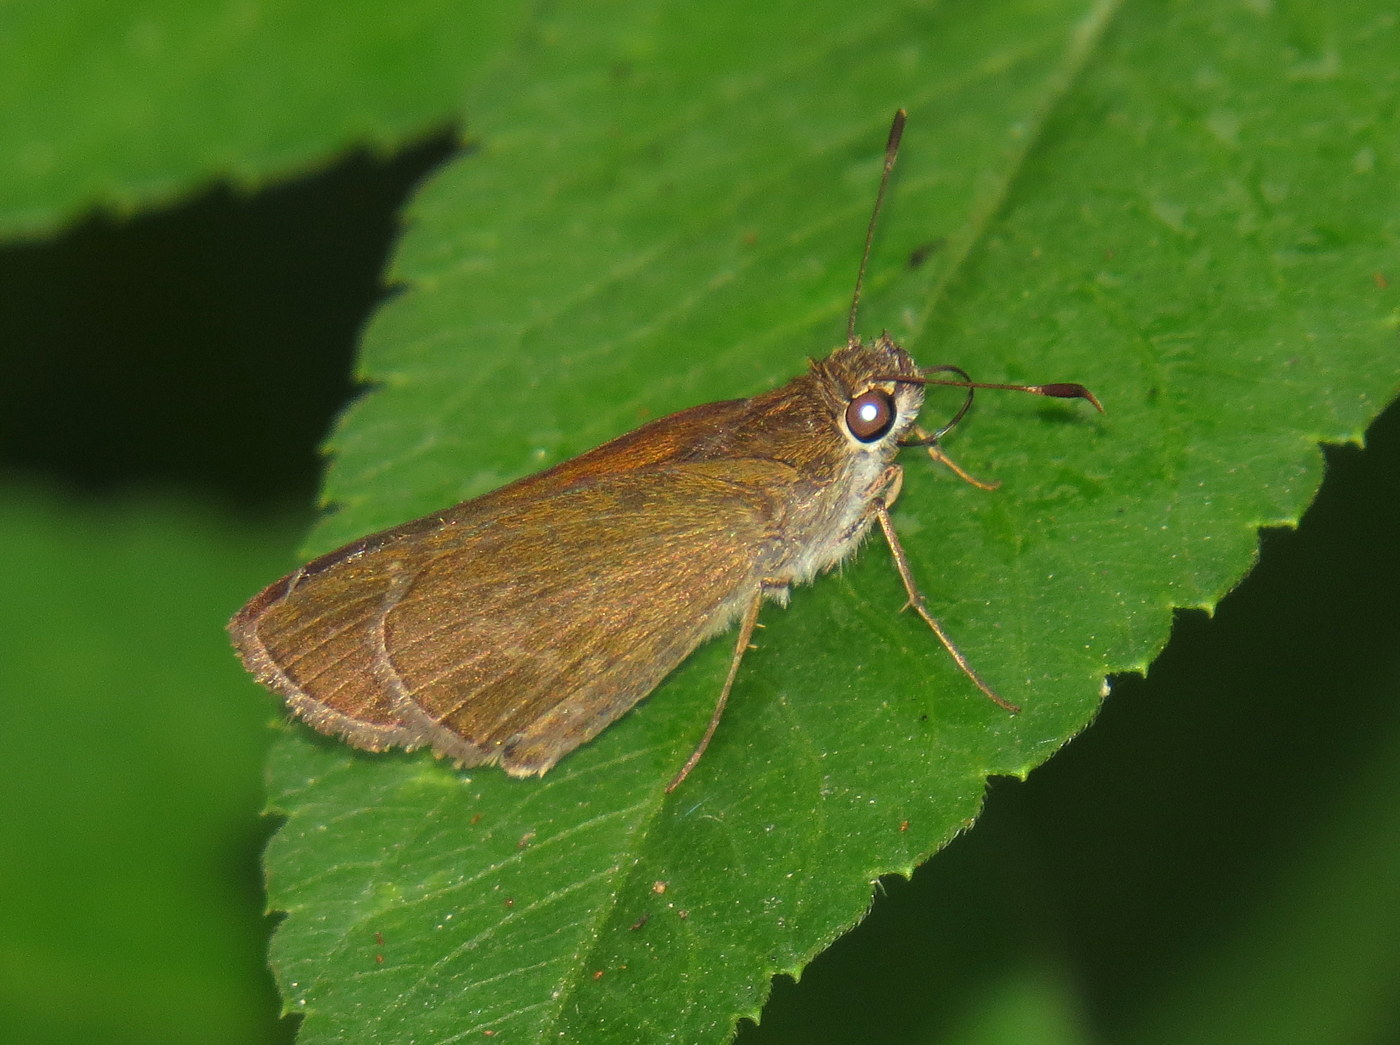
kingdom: Animalia
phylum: Arthropoda
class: Insecta
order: Lepidoptera
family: Hesperiidae
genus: Cymaenes
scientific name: Cymaenes tripunctus
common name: Dingy dotted skipper
